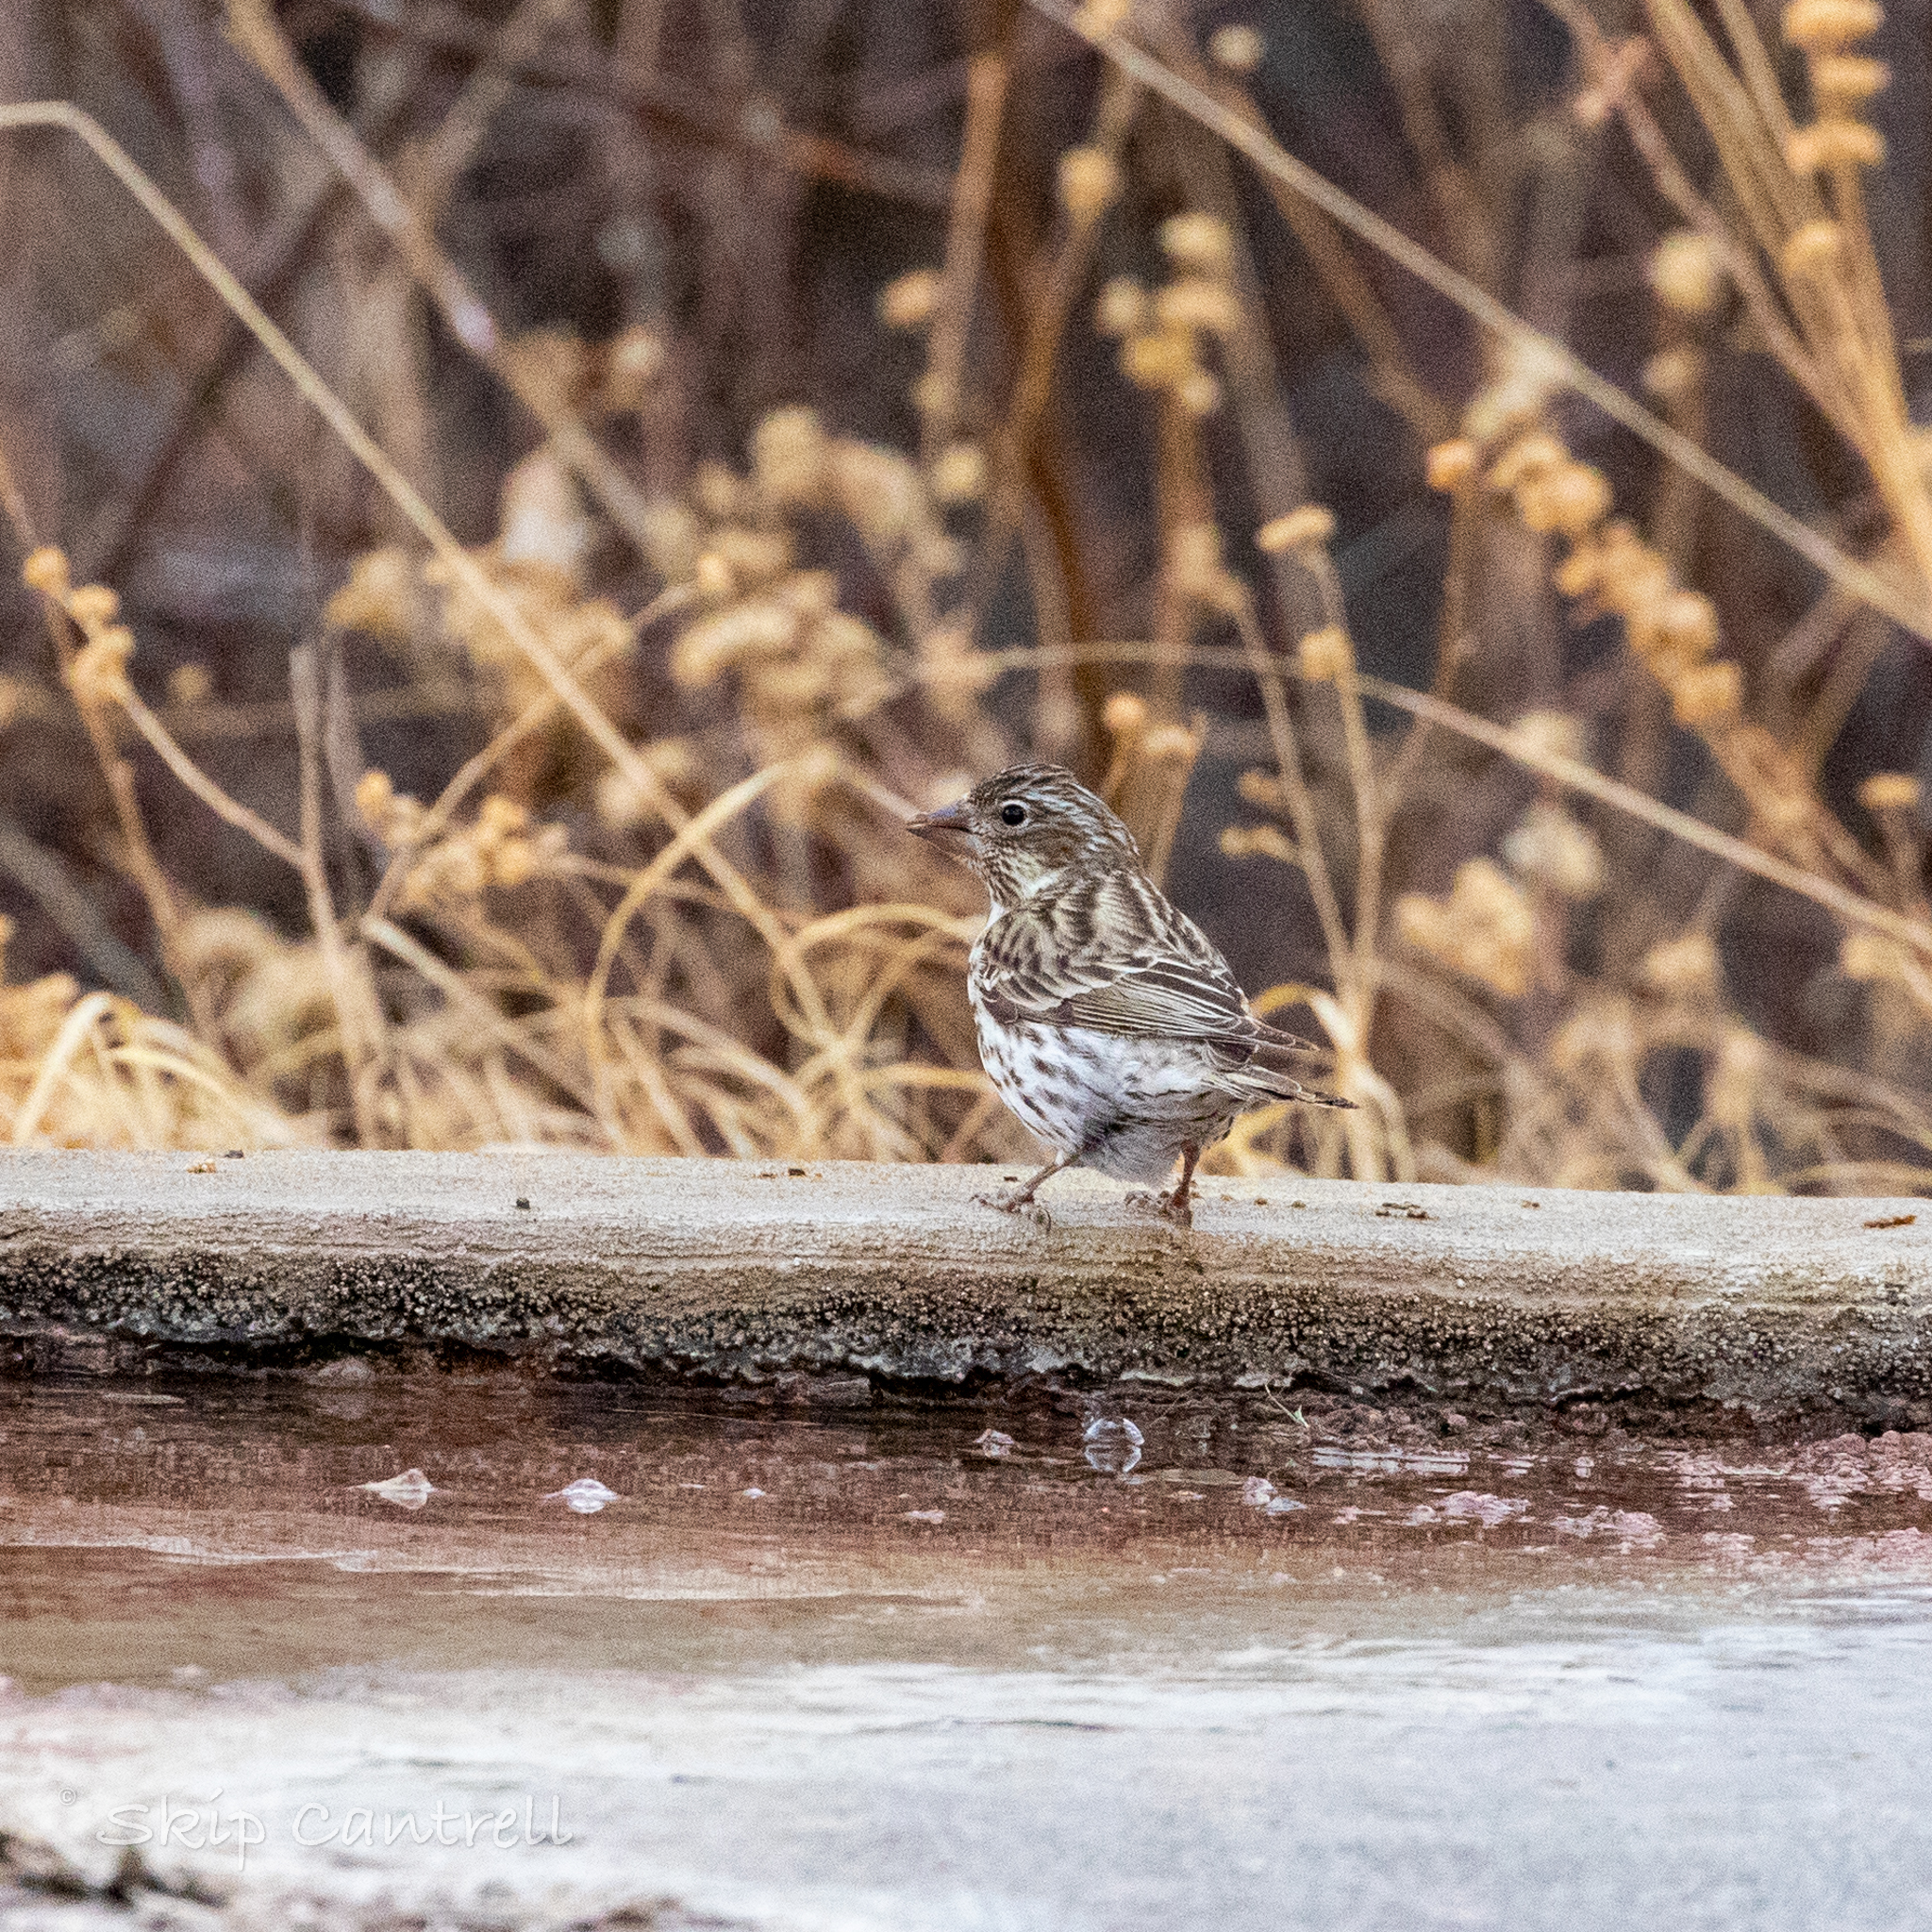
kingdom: Animalia
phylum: Chordata
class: Aves
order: Passeriformes
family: Fringillidae
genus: Haemorhous
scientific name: Haemorhous cassinii
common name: Cassin's finch
